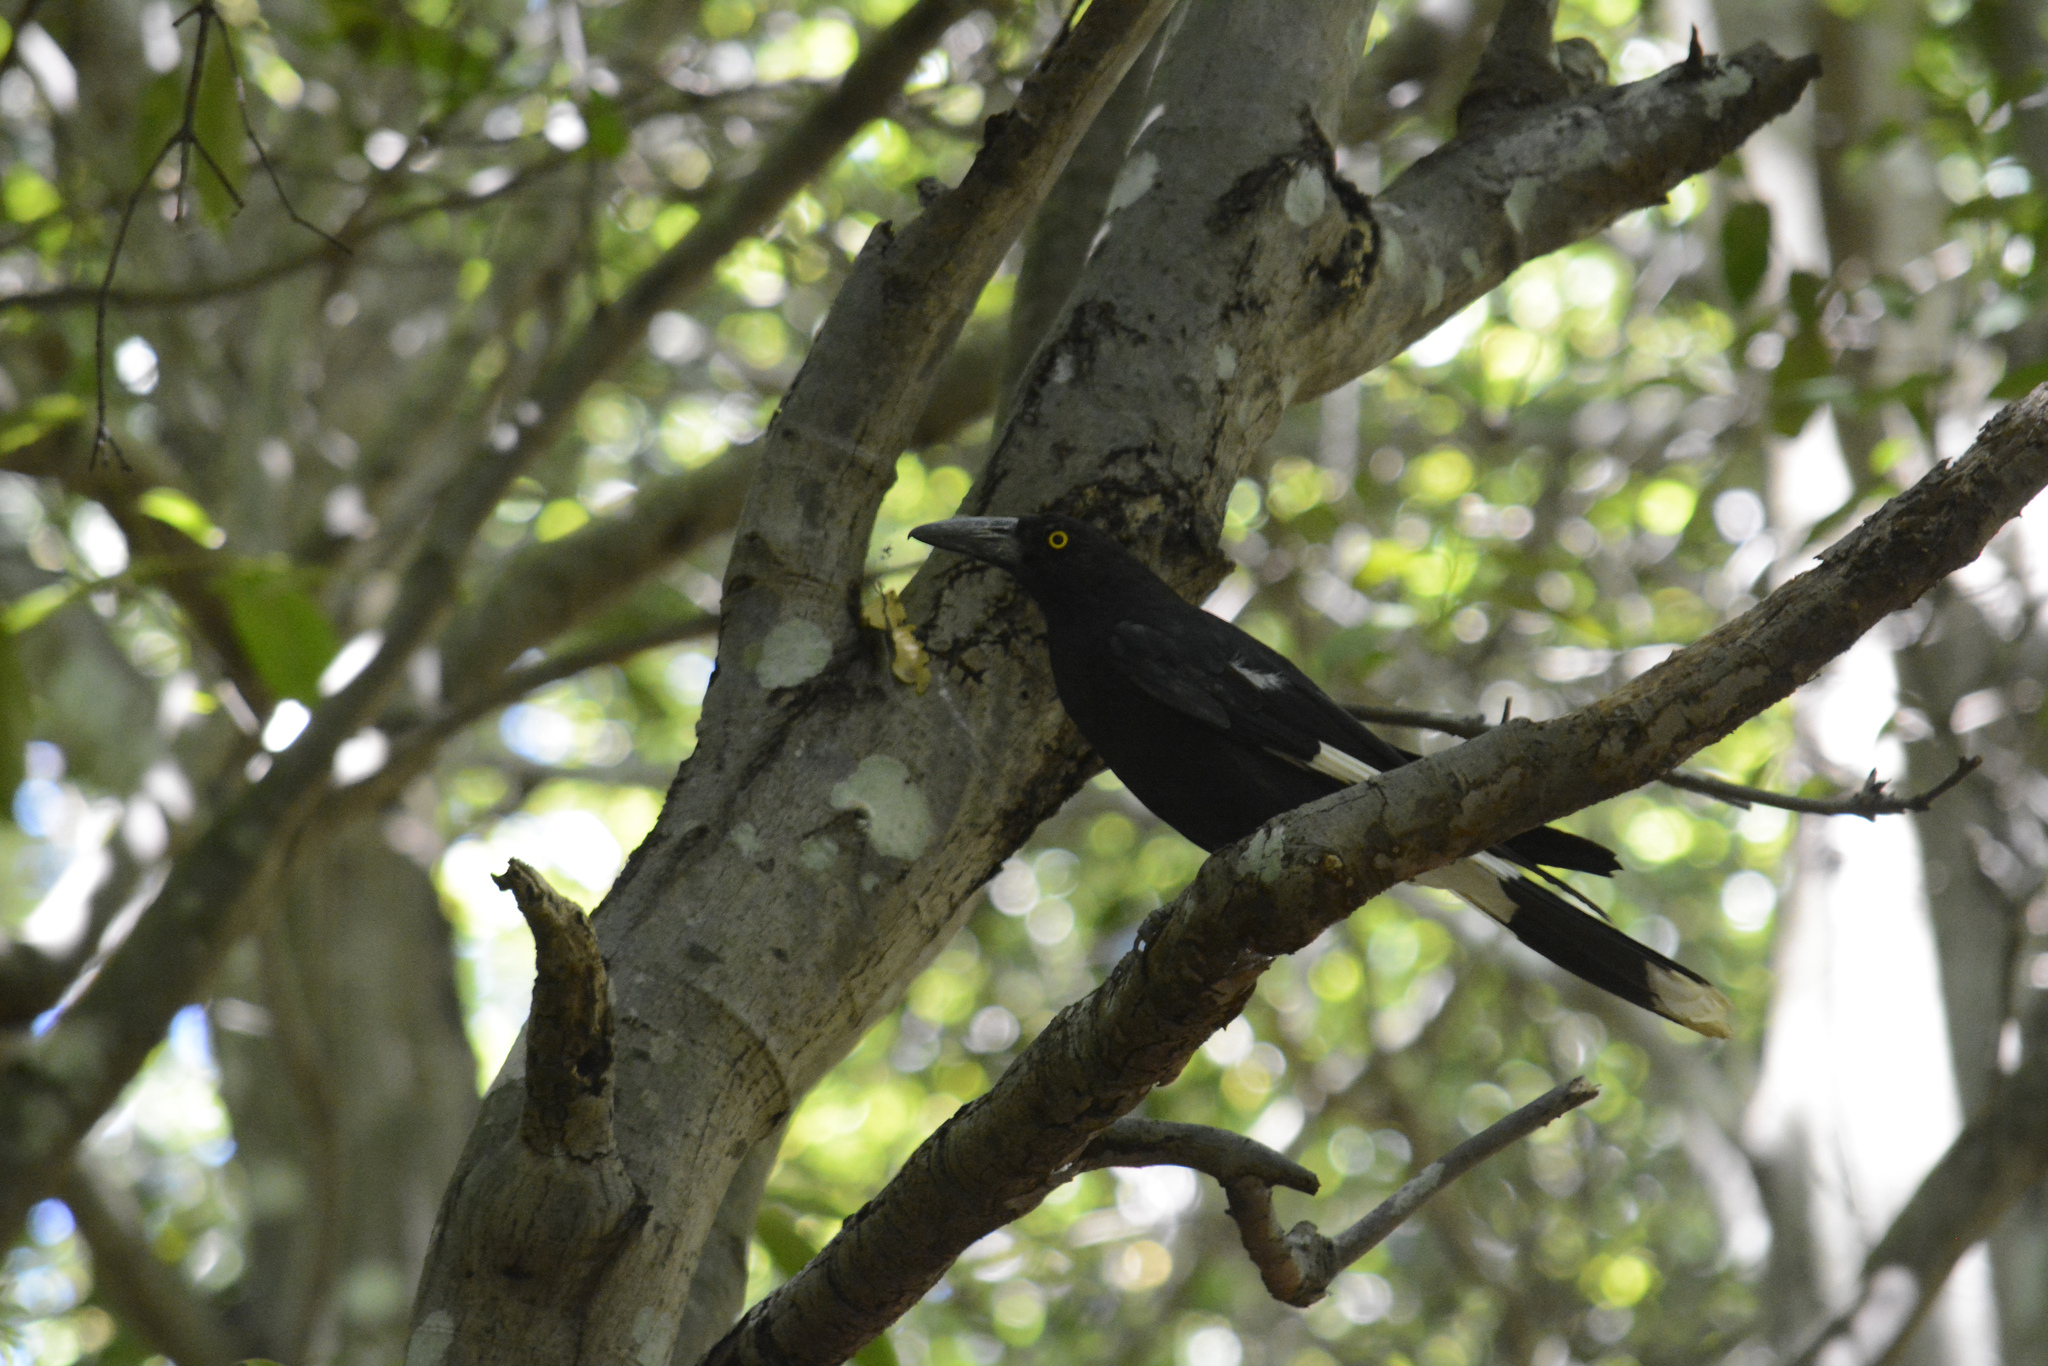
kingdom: Animalia
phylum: Chordata
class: Aves
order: Passeriformes
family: Cracticidae
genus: Strepera
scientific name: Strepera graculina
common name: Pied currawong
